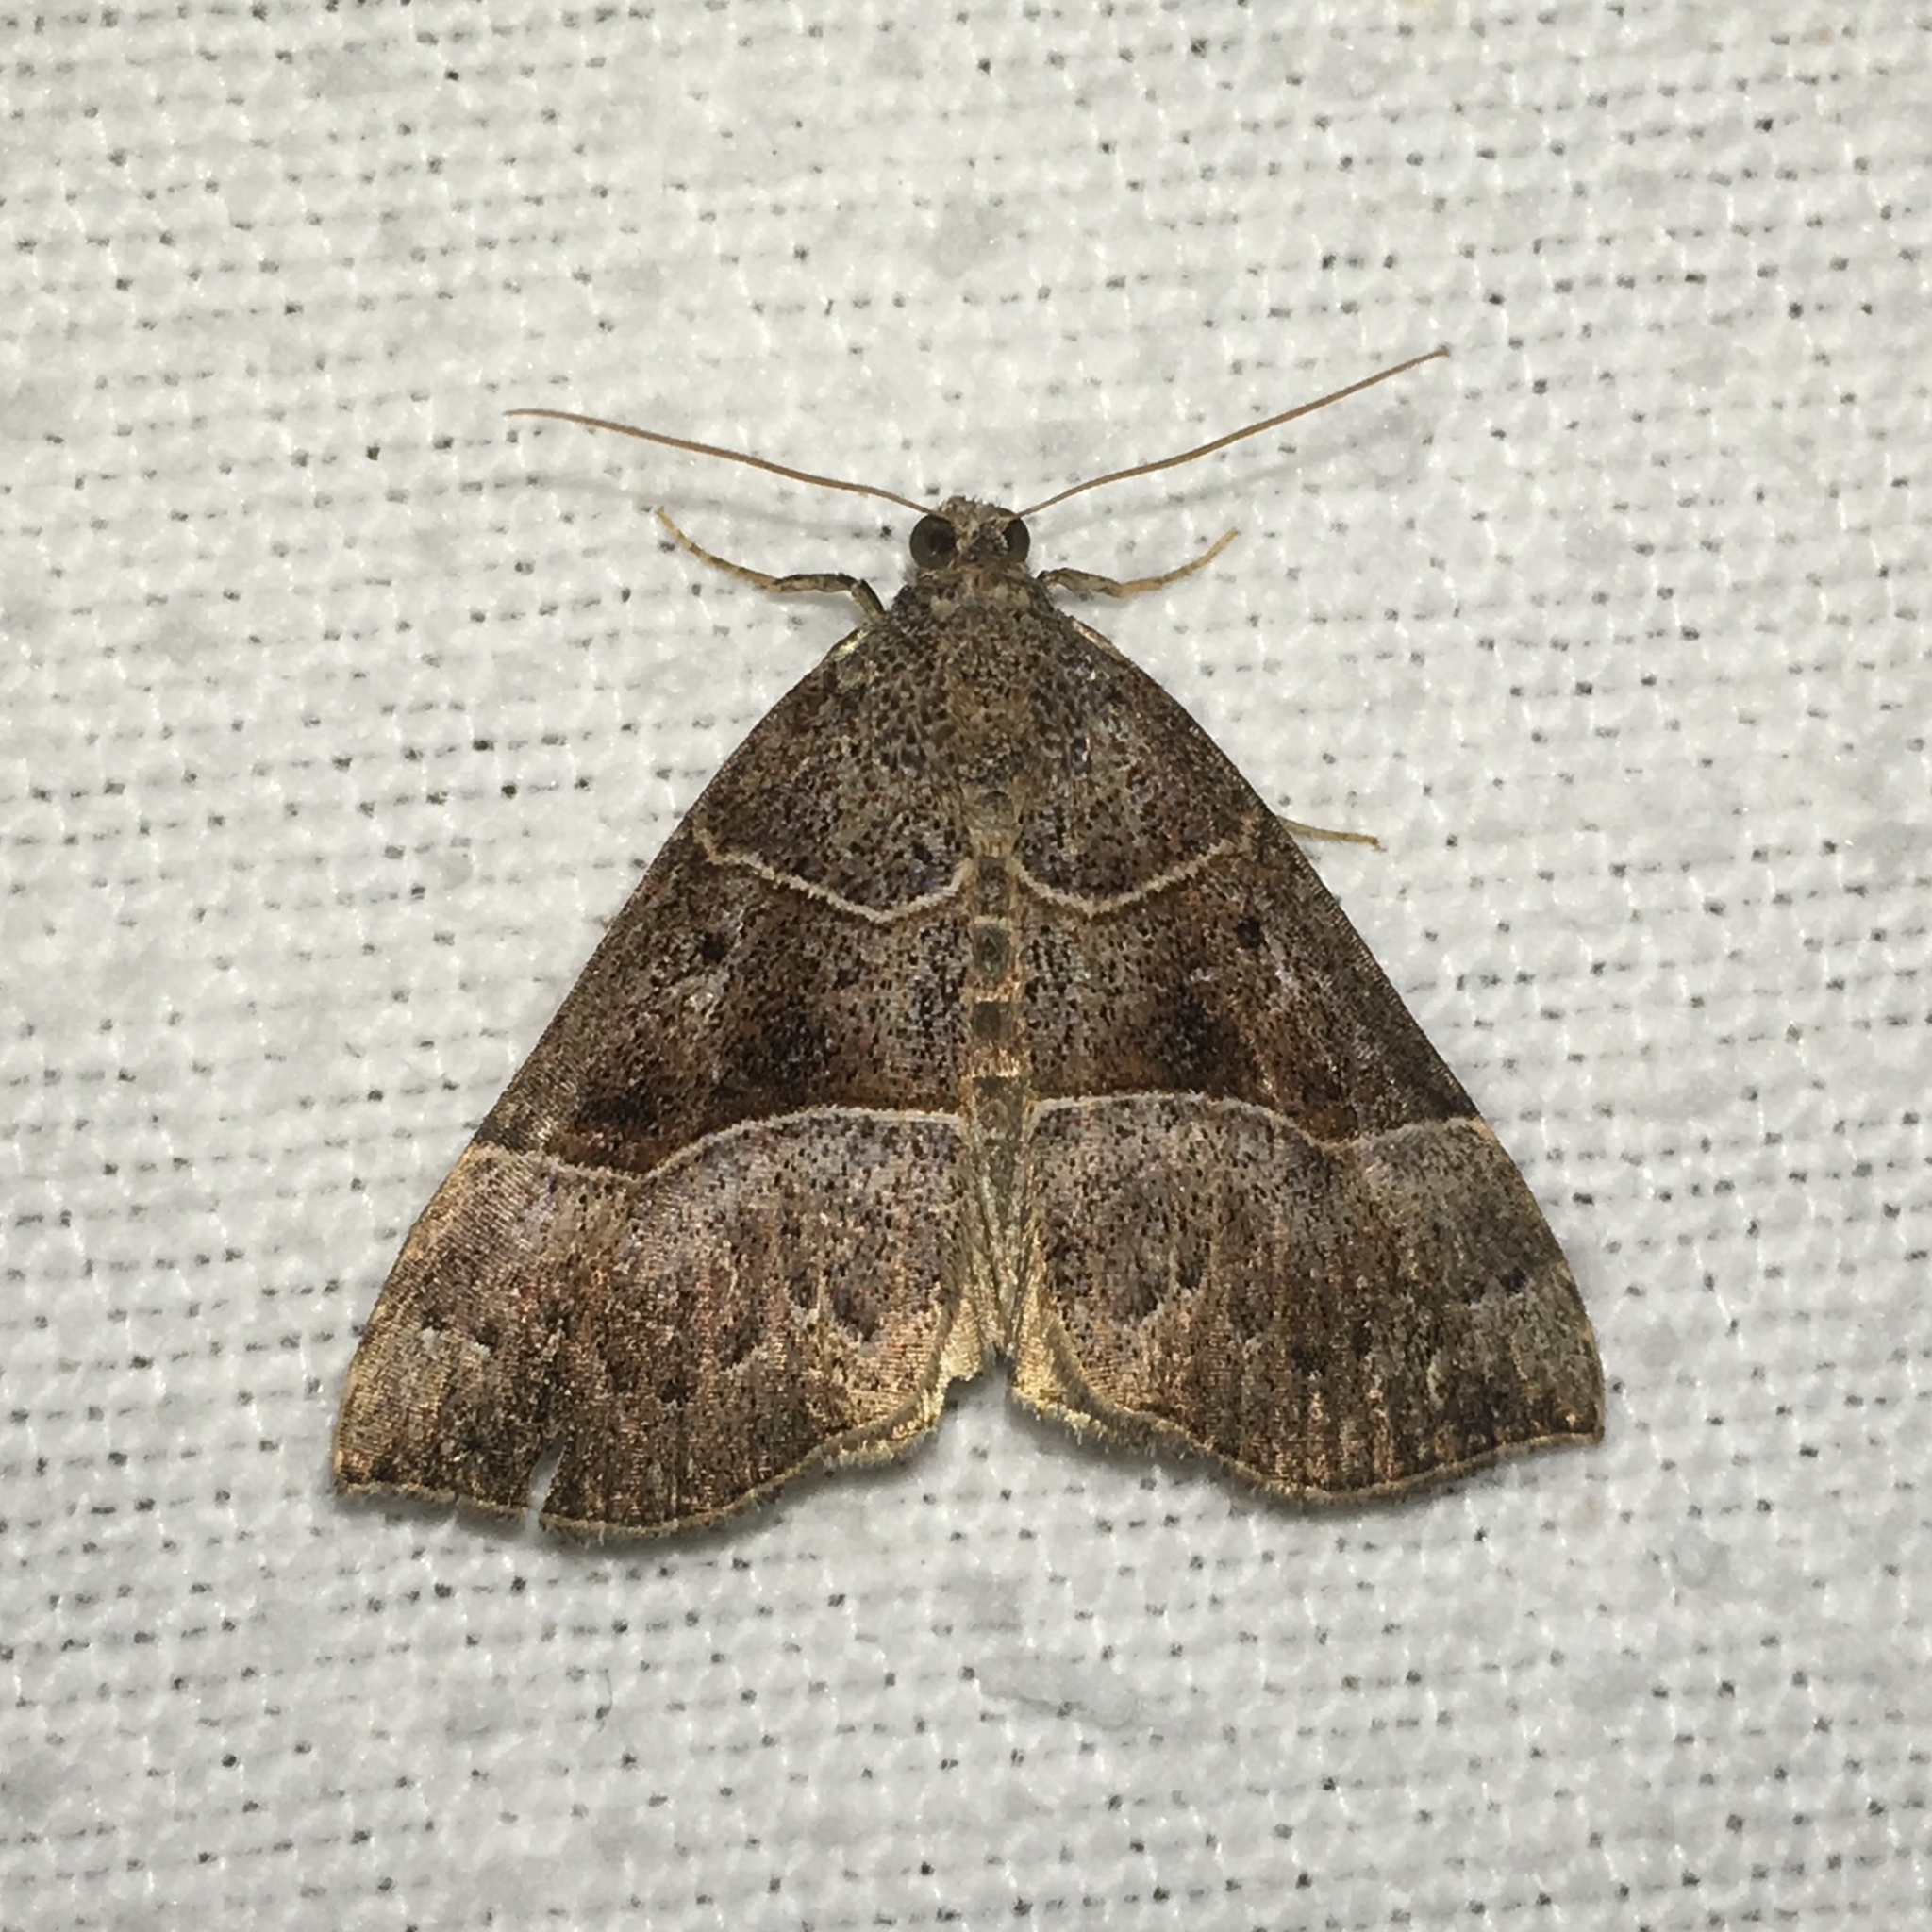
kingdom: Animalia
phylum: Arthropoda
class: Insecta
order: Lepidoptera
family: Erebidae
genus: Hypena
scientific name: Hypena deceptalis
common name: Deceptive snout
